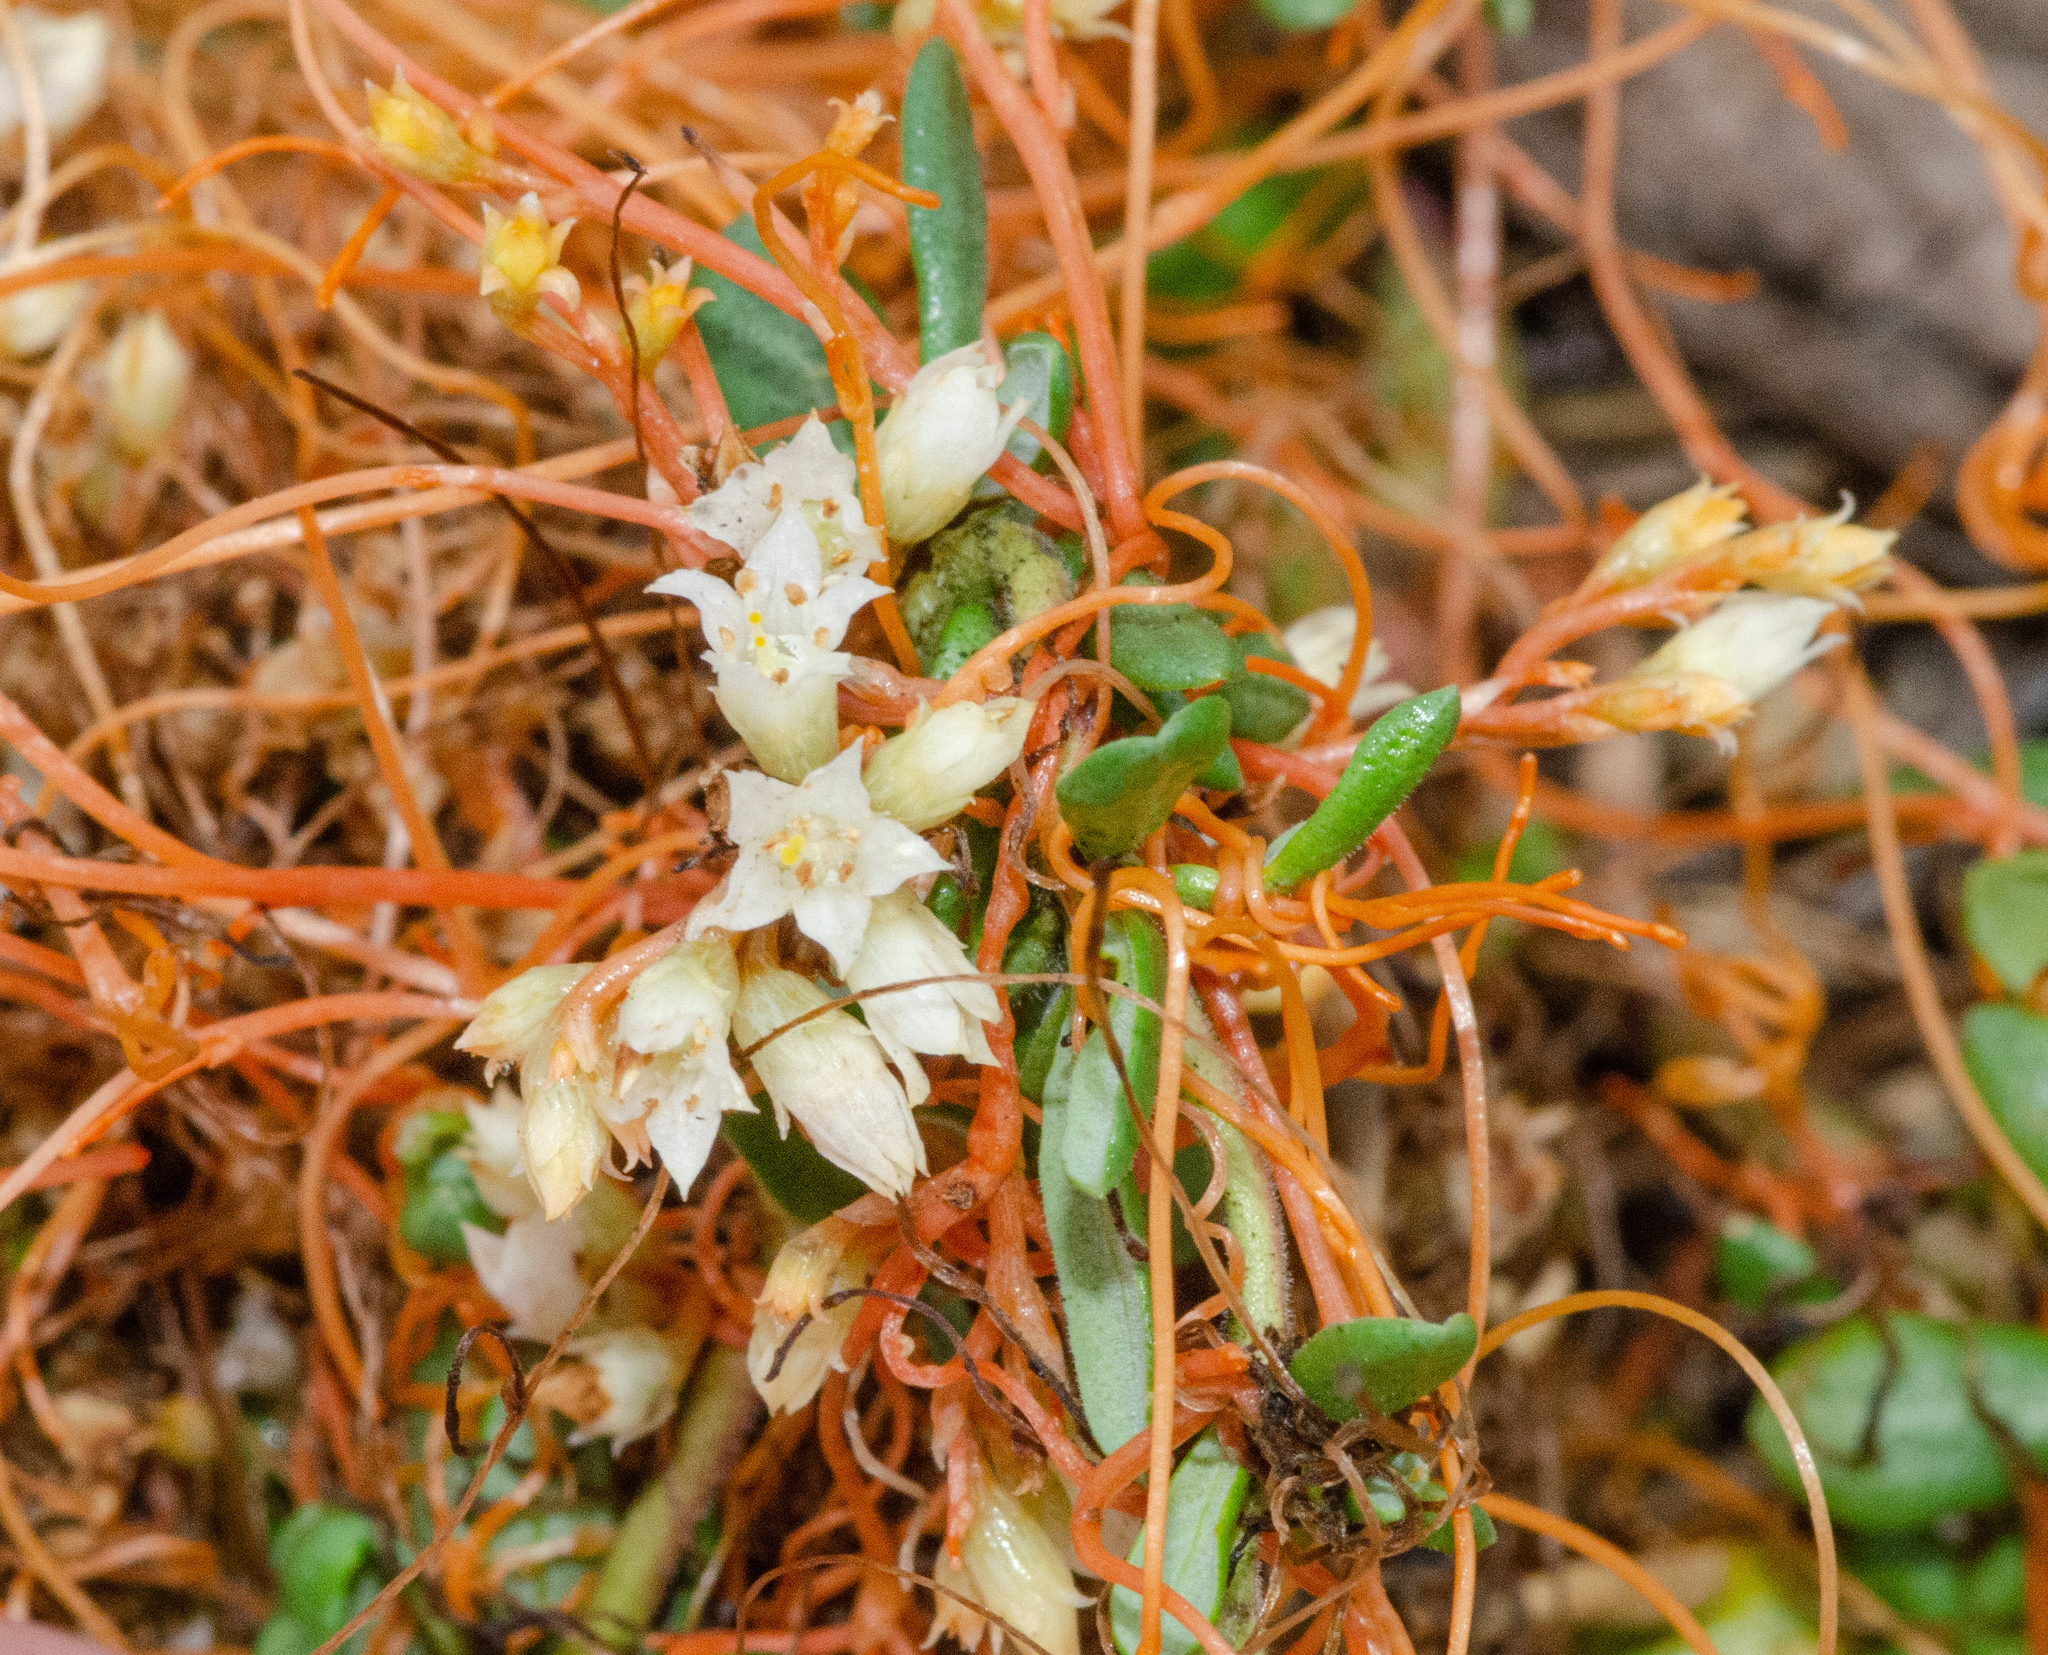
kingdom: Plantae
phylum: Tracheophyta
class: Magnoliopsida
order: Solanales
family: Convolvulaceae
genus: Cuscuta
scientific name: Cuscuta pacifica
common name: Large saltmarsh dodder
